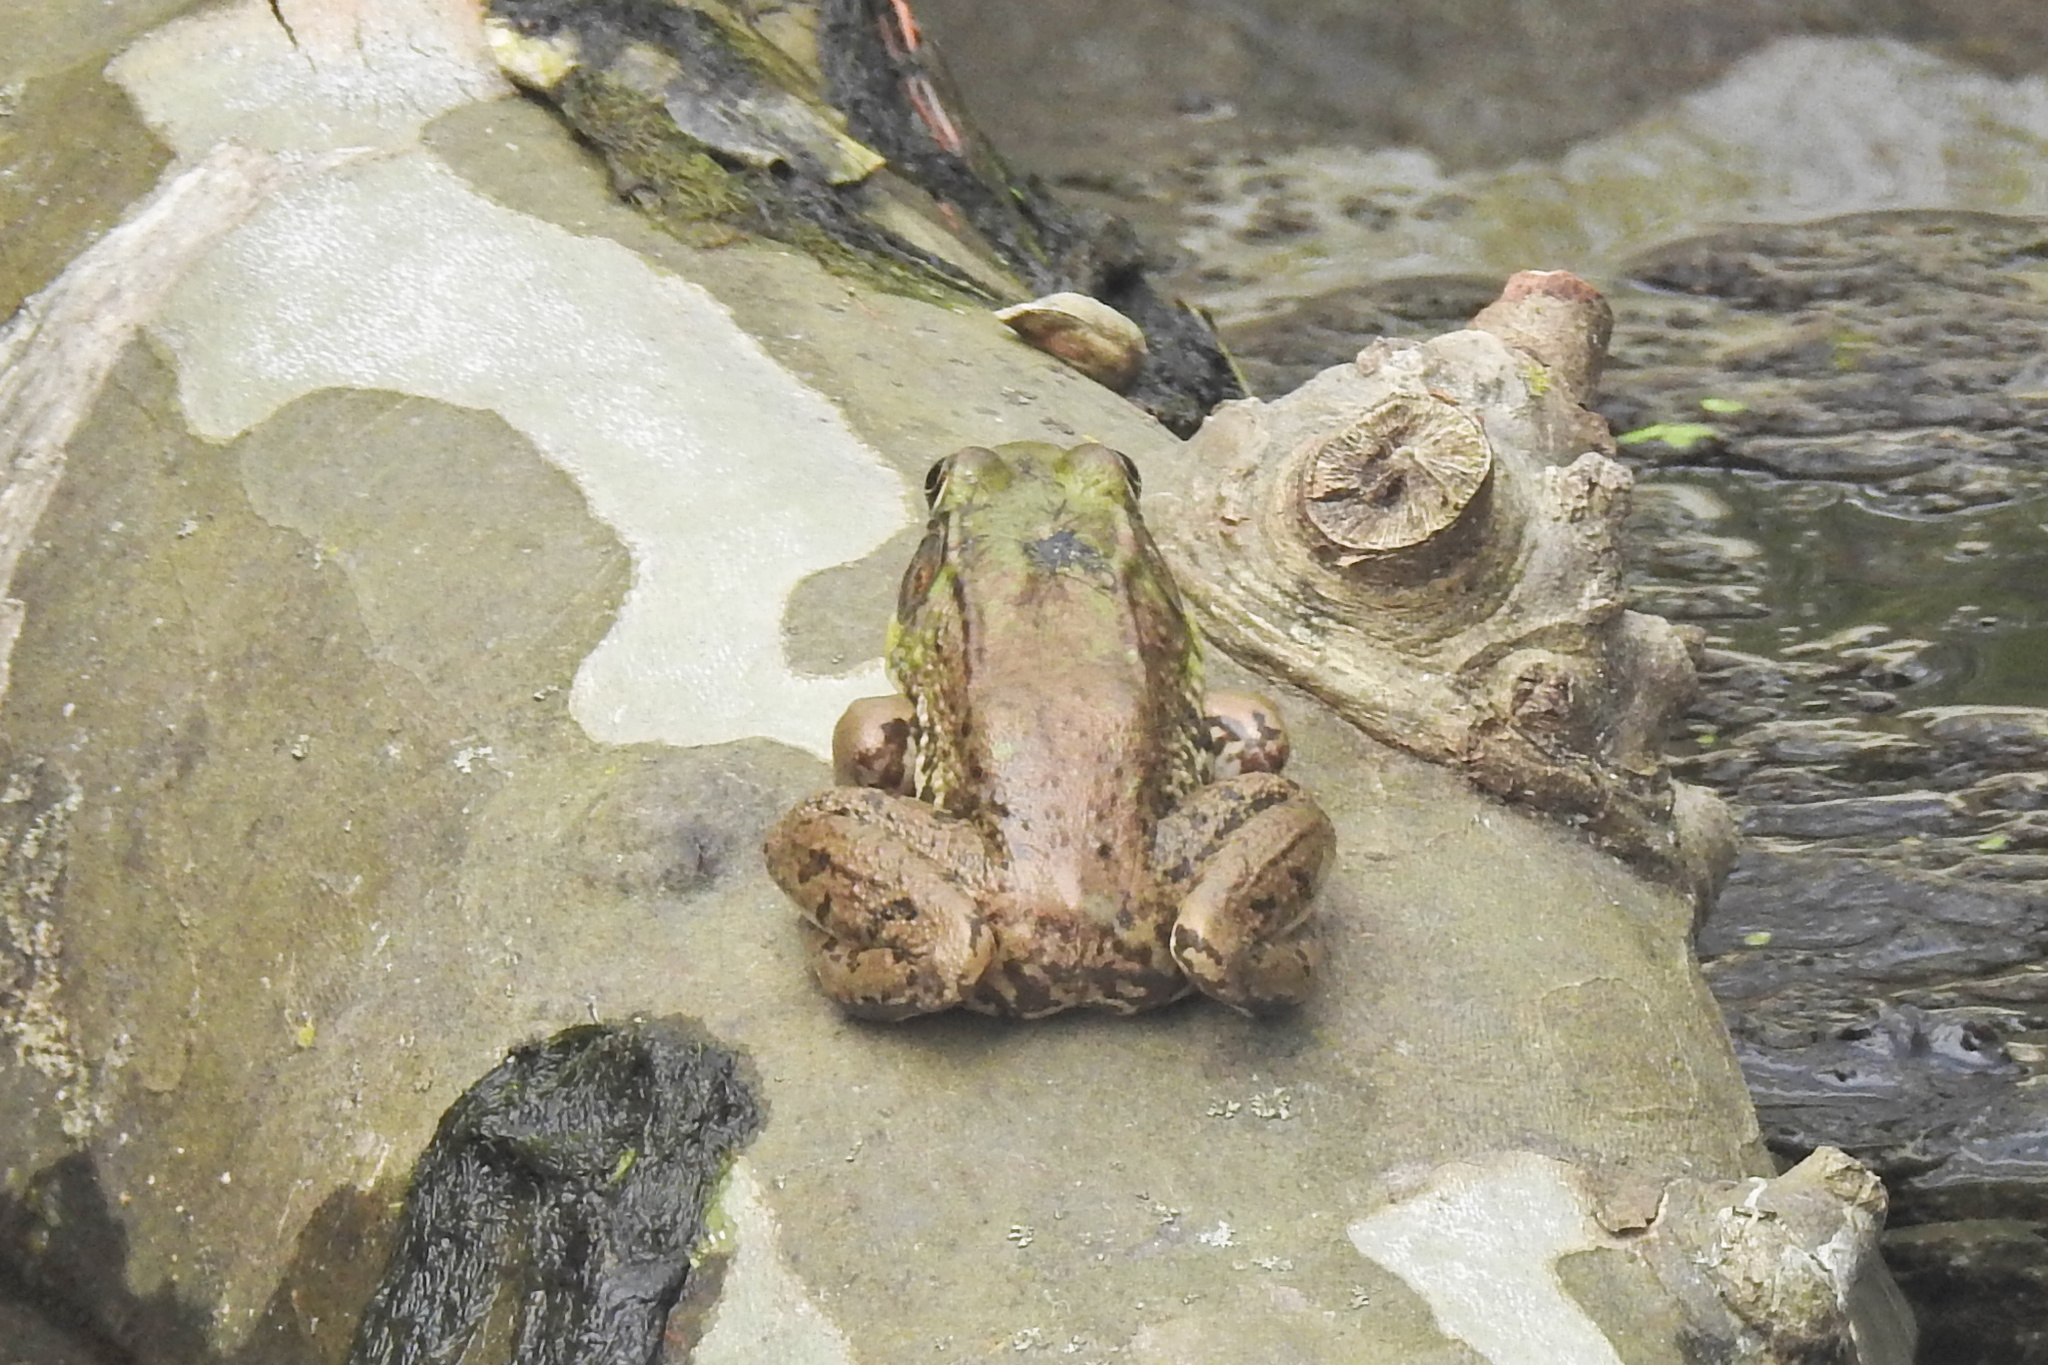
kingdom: Animalia
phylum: Chordata
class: Amphibia
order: Anura
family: Ranidae
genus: Lithobates
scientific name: Lithobates clamitans
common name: Green frog
